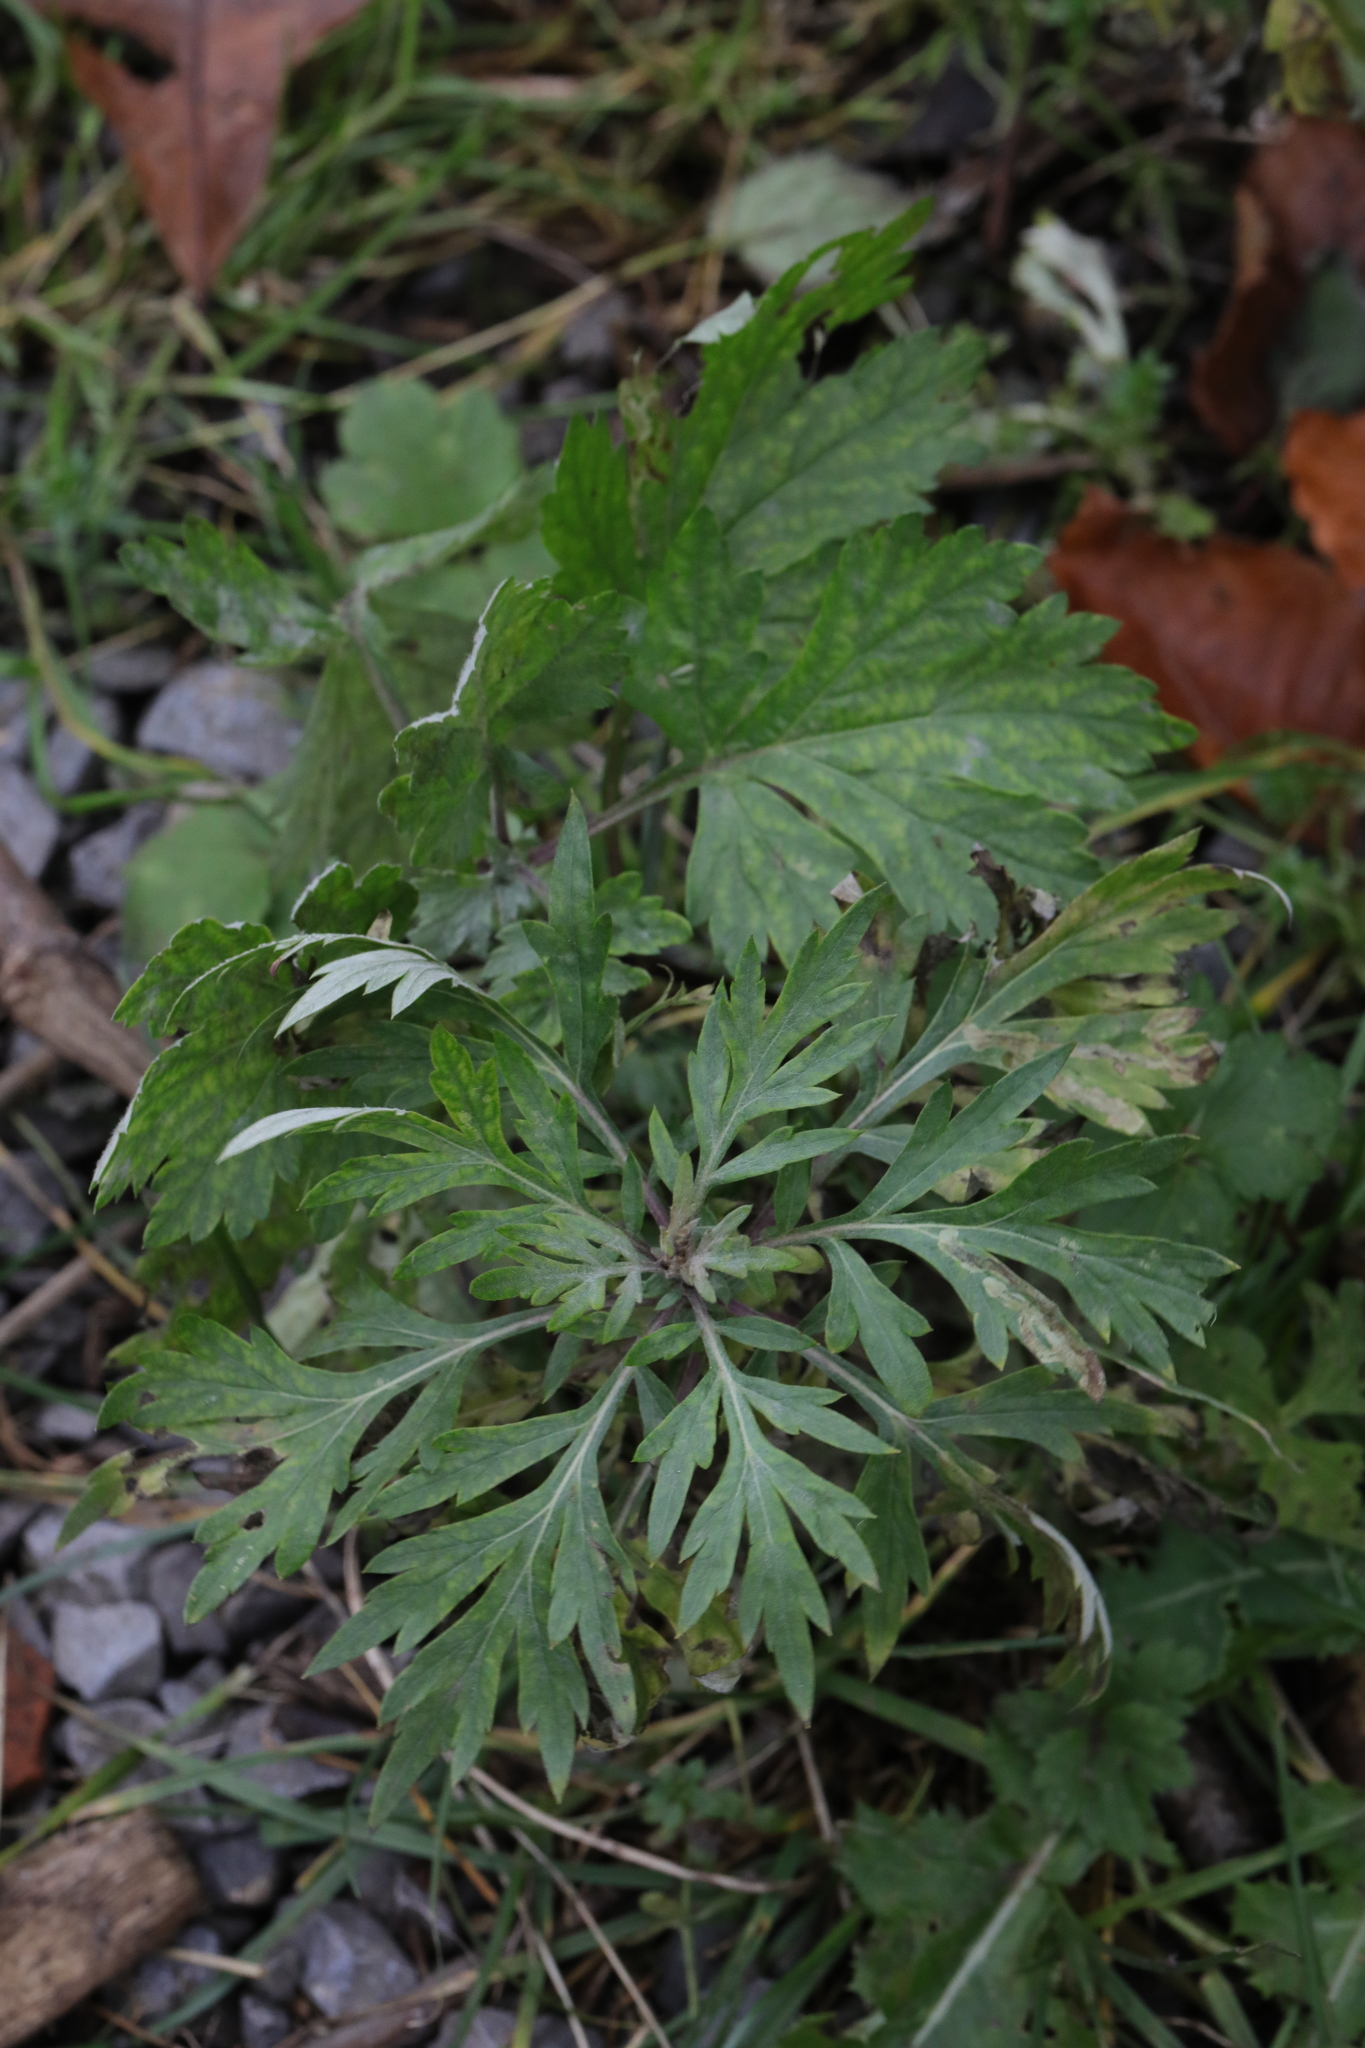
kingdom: Plantae
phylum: Tracheophyta
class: Magnoliopsida
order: Asterales
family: Asteraceae
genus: Artemisia
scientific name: Artemisia vulgaris
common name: Mugwort
